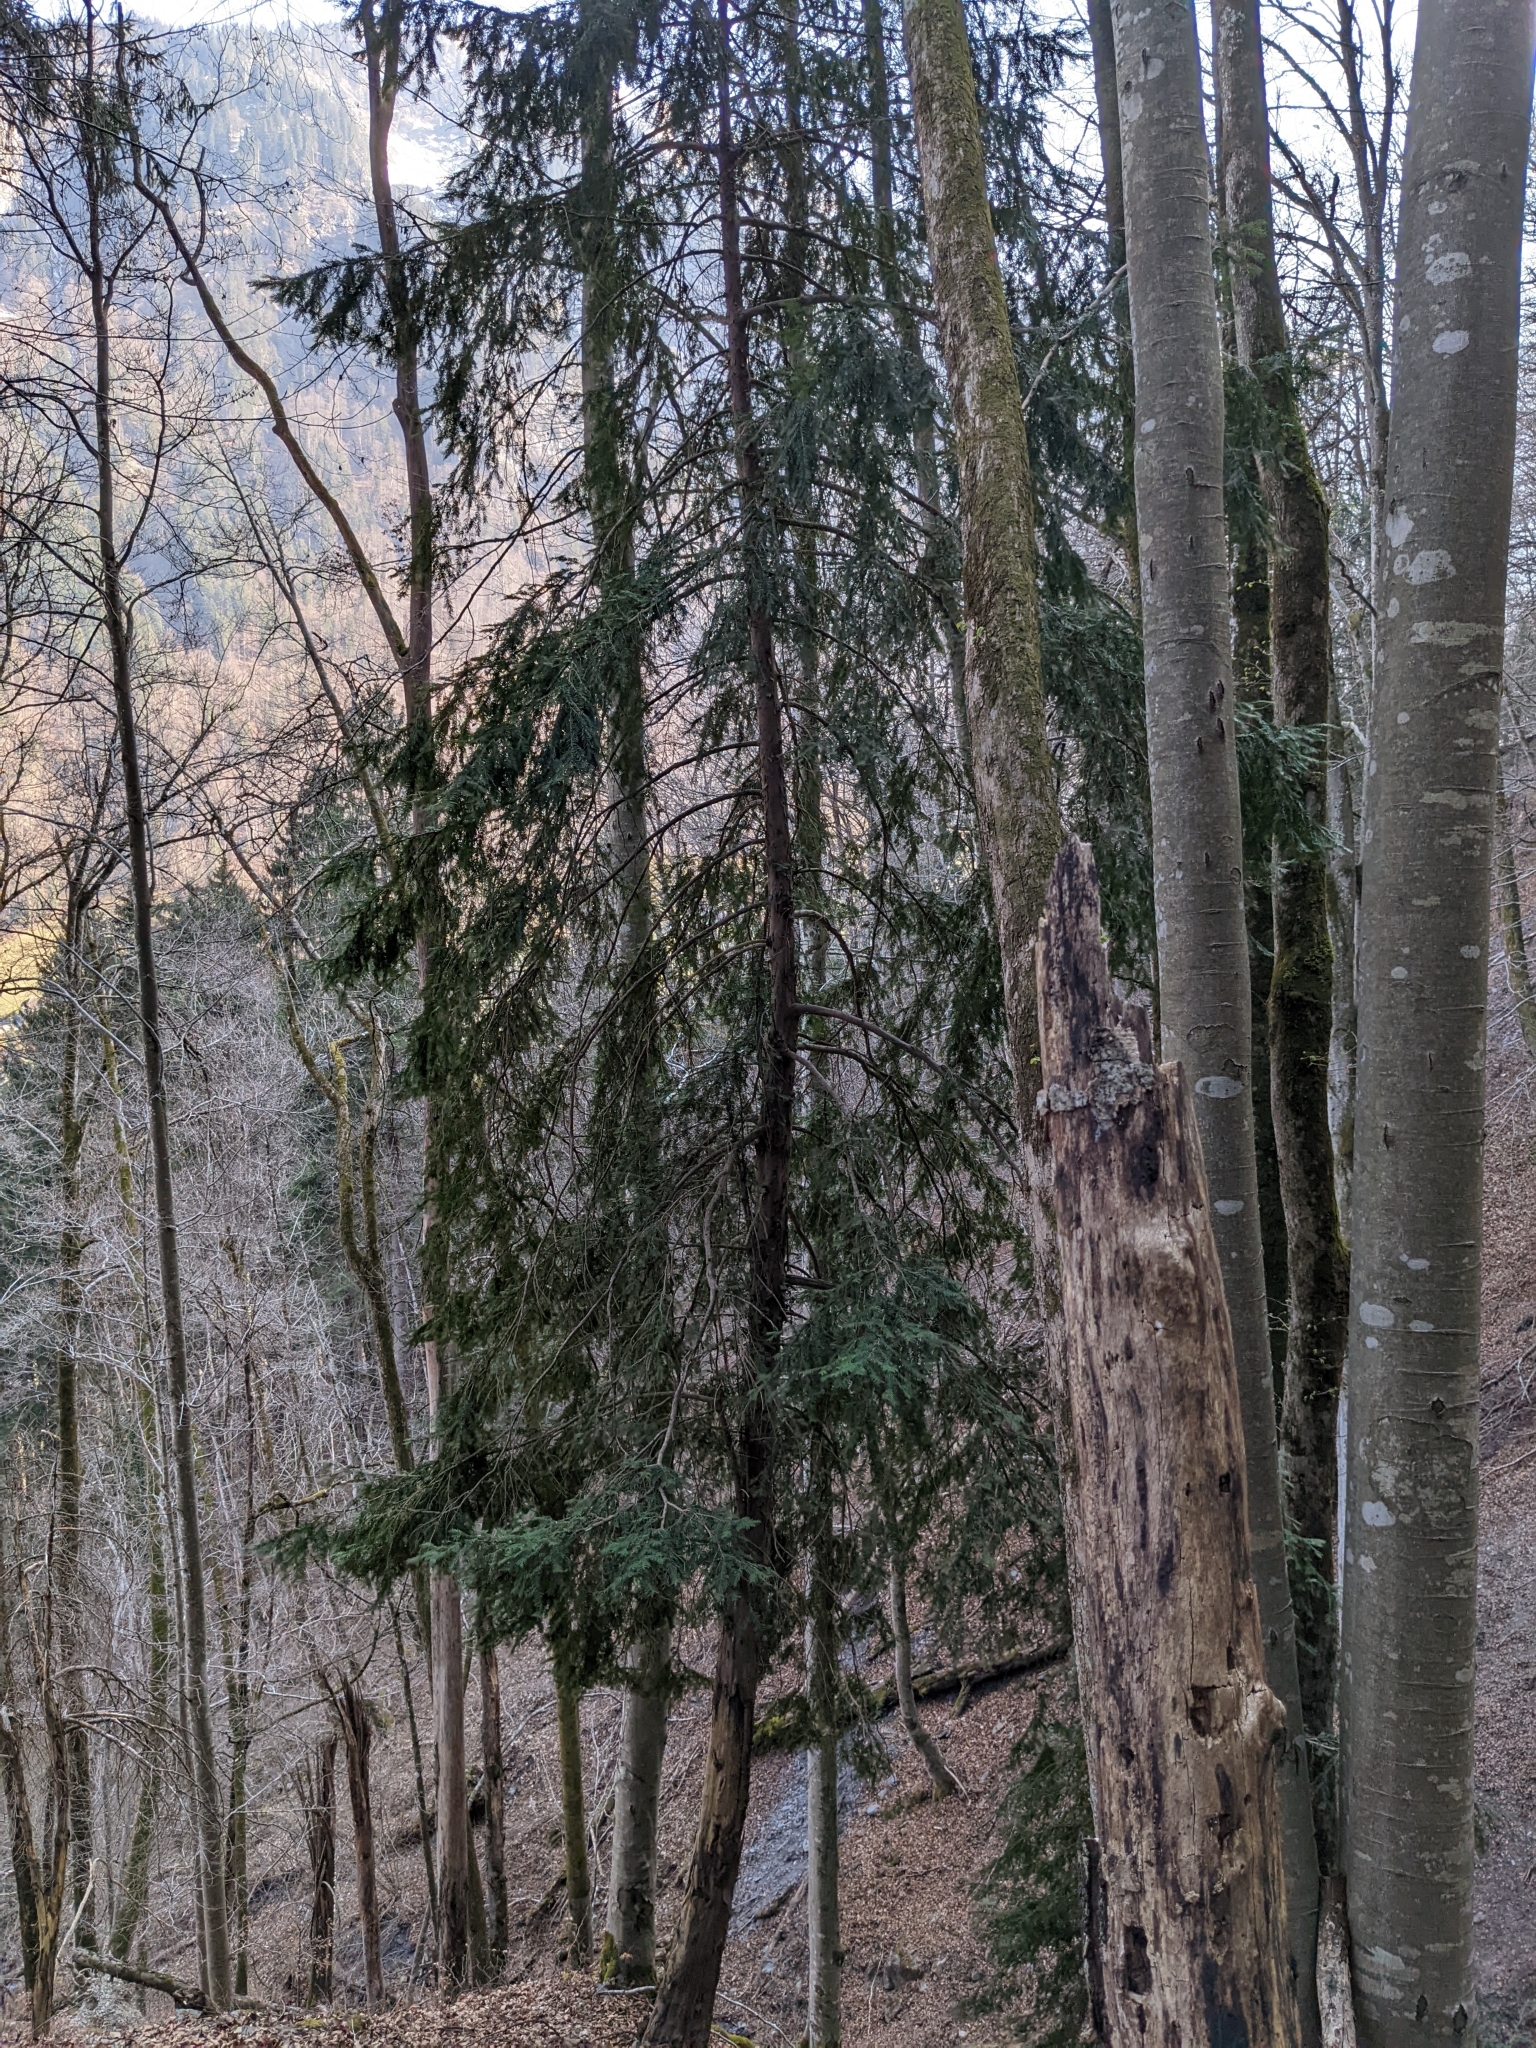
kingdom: Plantae
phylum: Tracheophyta
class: Pinopsida
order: Pinales
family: Taxaceae
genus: Taxus
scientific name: Taxus baccata
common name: Yew
